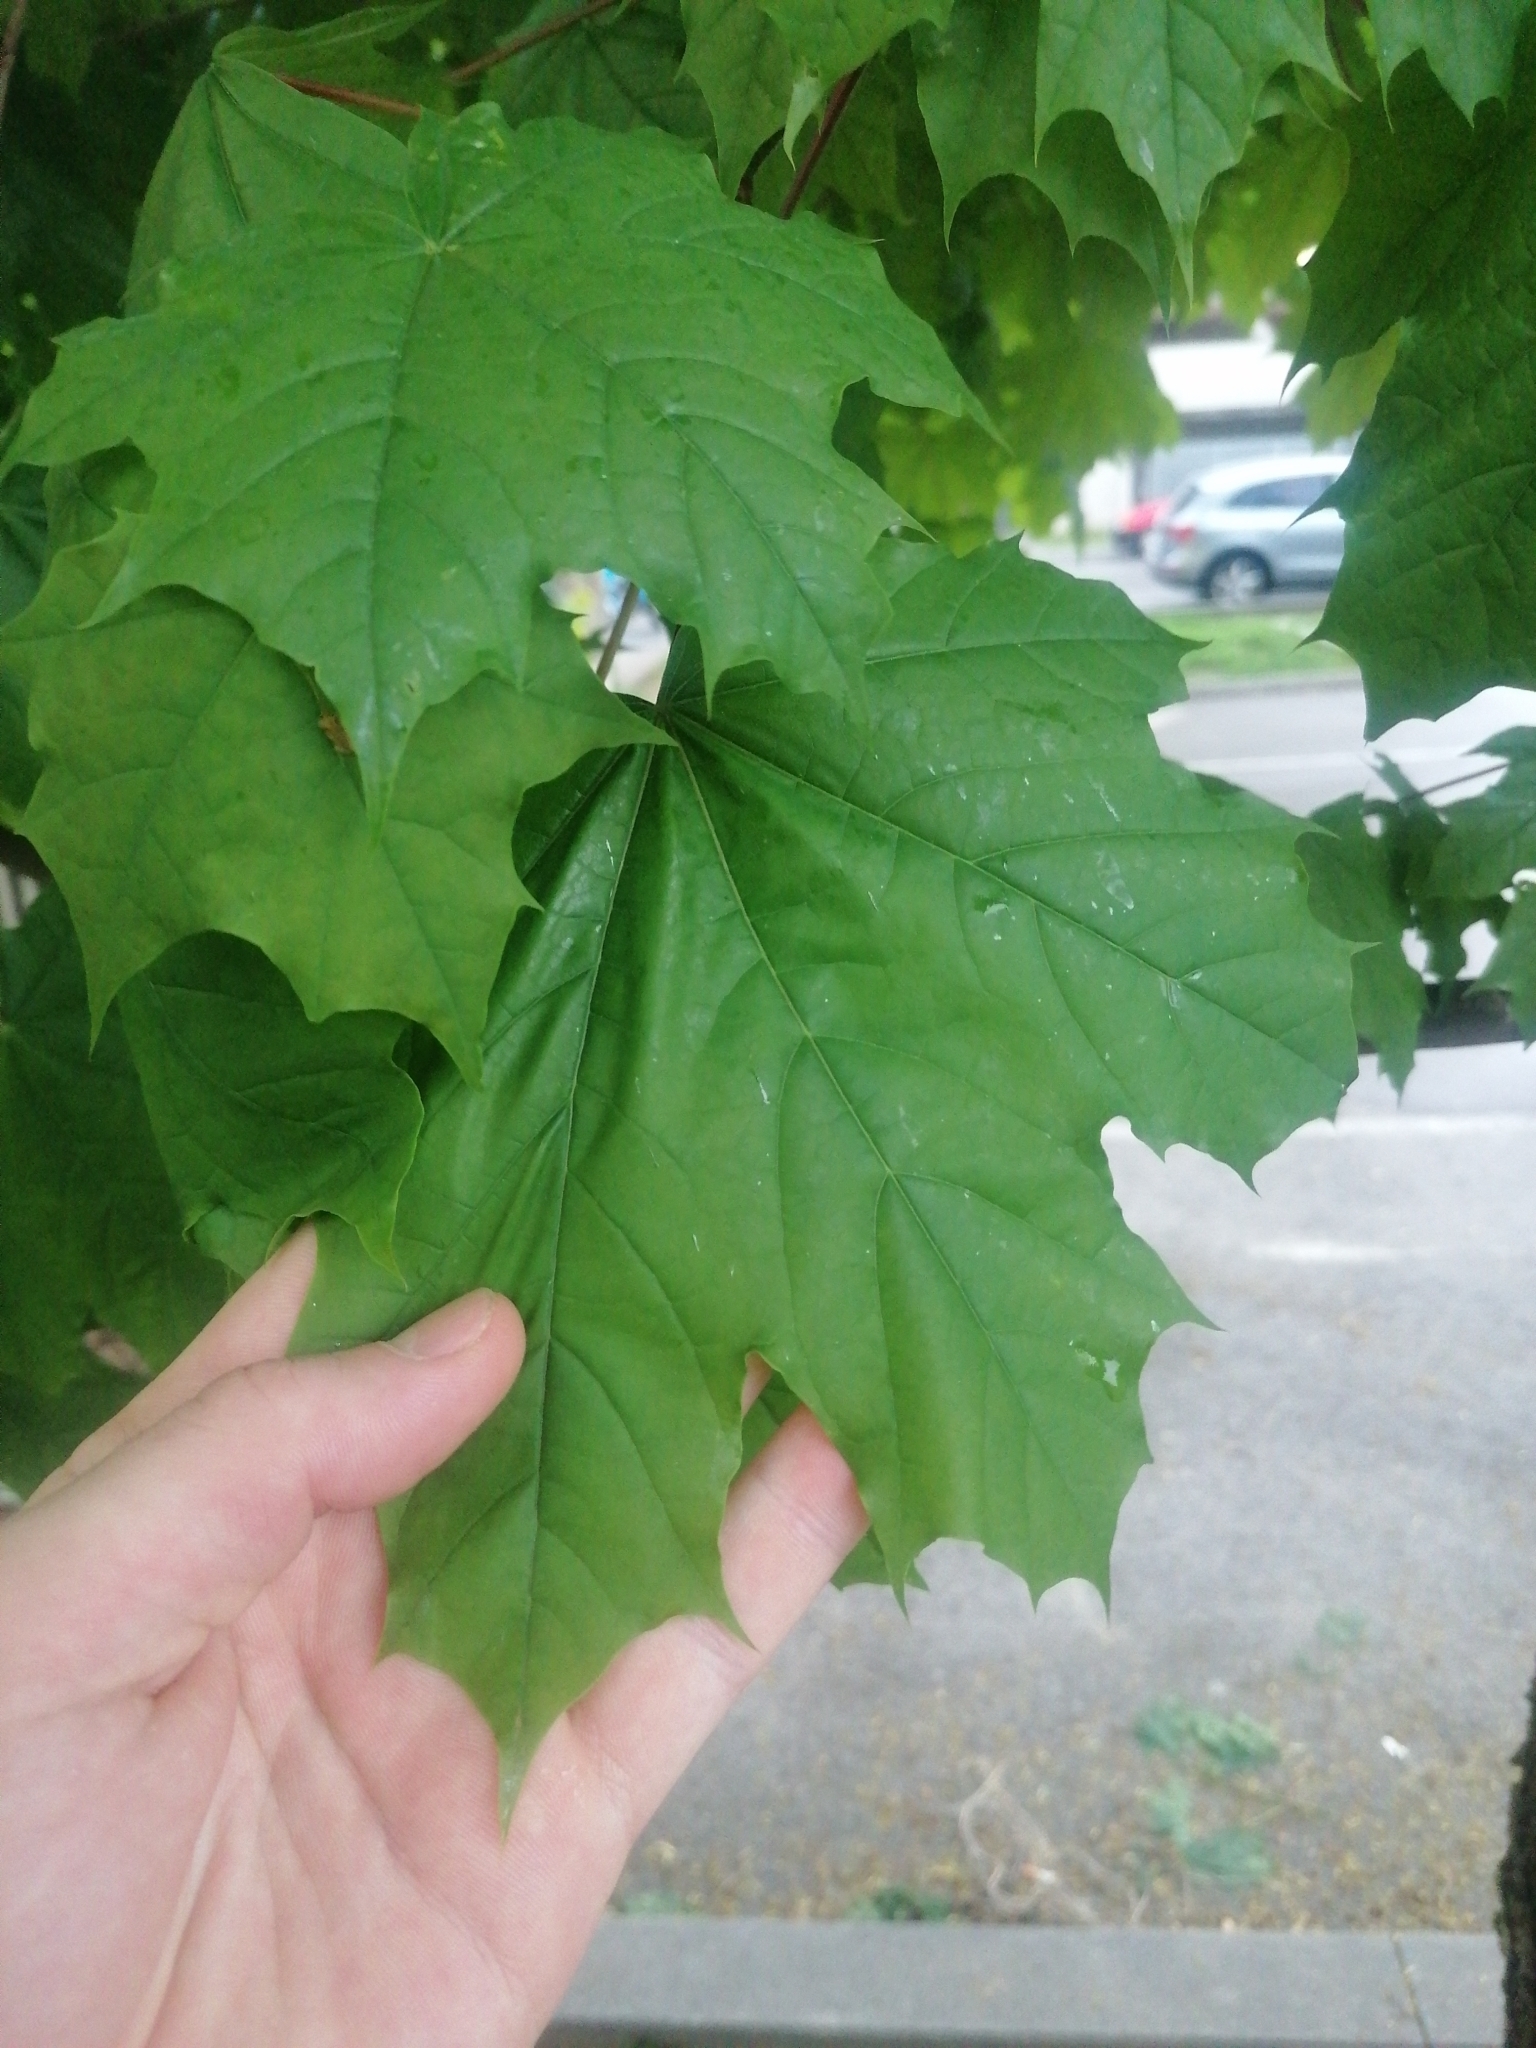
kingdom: Plantae
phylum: Tracheophyta
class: Magnoliopsida
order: Sapindales
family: Sapindaceae
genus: Acer
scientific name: Acer platanoides
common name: Norway maple
